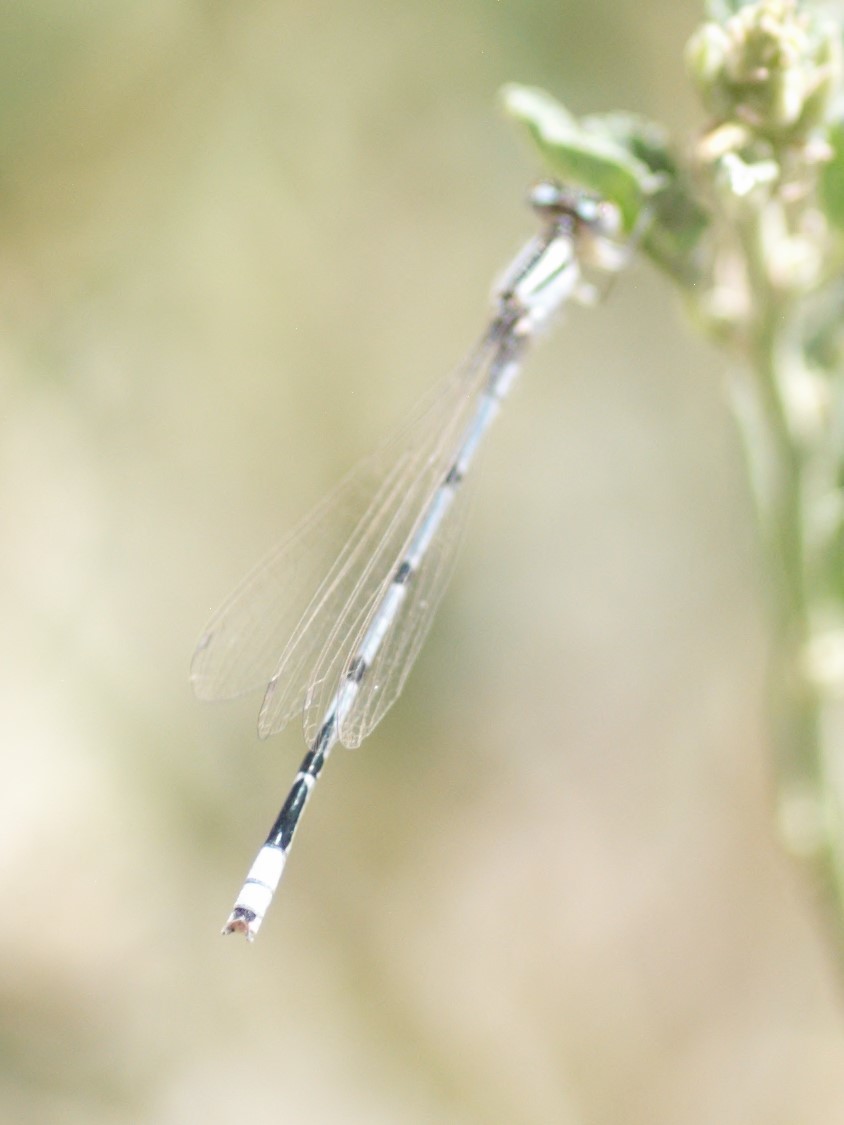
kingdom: Animalia
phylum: Arthropoda
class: Insecta
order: Odonata
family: Coenagrionidae
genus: Enallagma
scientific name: Enallagma civile
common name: Damselfly
